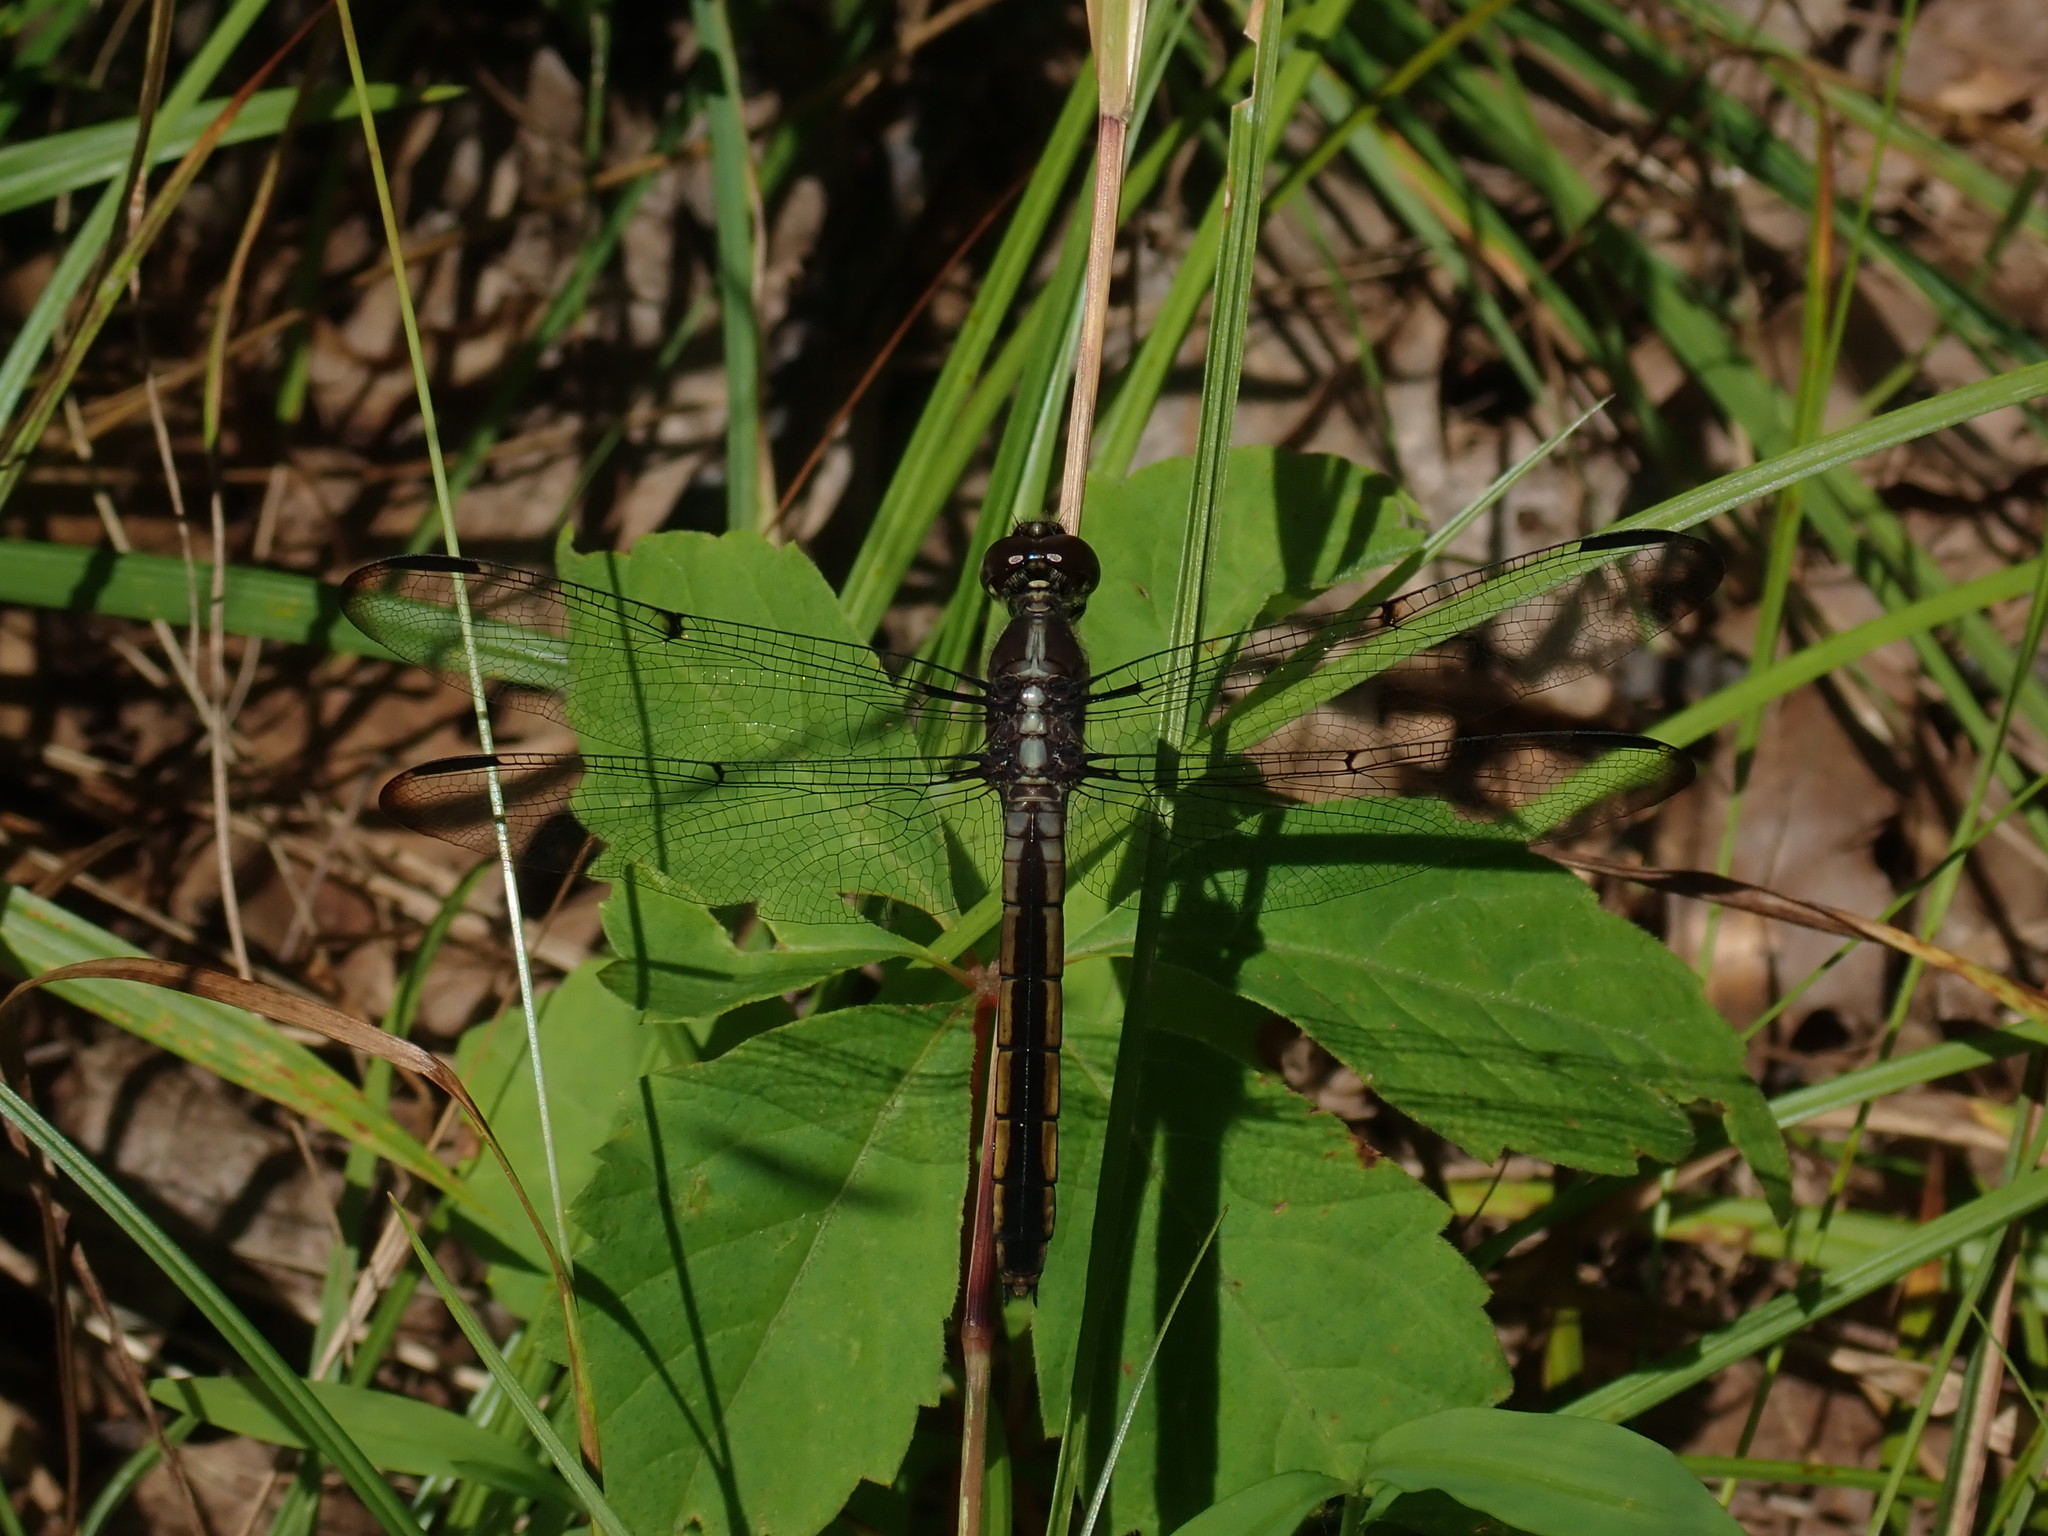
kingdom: Animalia
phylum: Arthropoda
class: Insecta
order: Odonata
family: Libellulidae
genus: Libellula
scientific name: Libellula incesta
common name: Slaty skimmer
